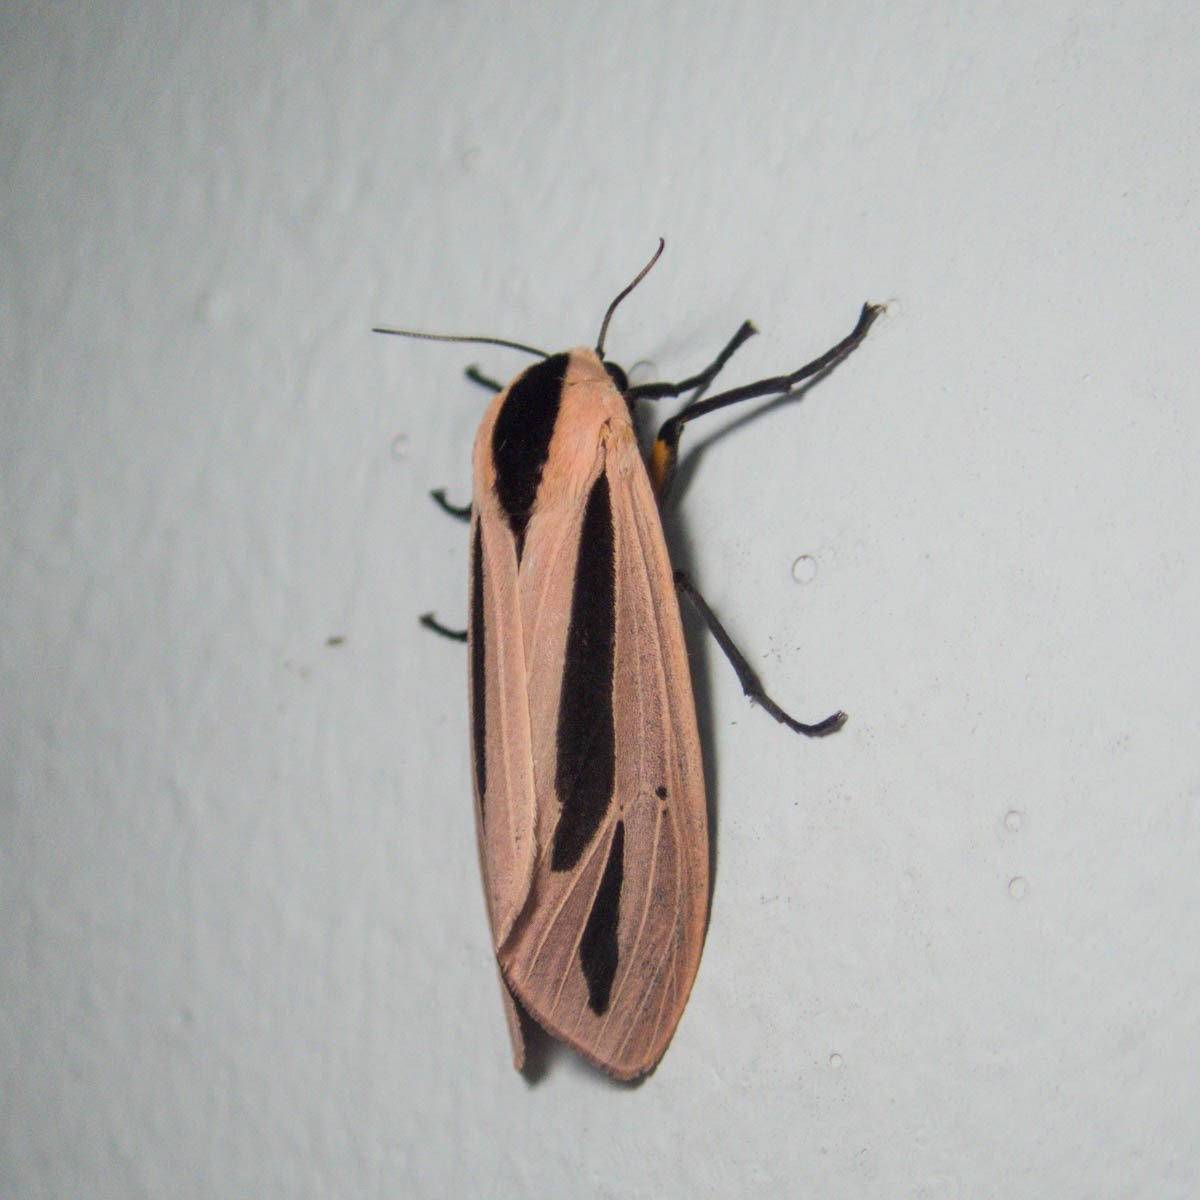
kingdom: Animalia
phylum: Arthropoda
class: Insecta
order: Lepidoptera
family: Erebidae
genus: Creatonotos
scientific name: Creatonotos gangis
